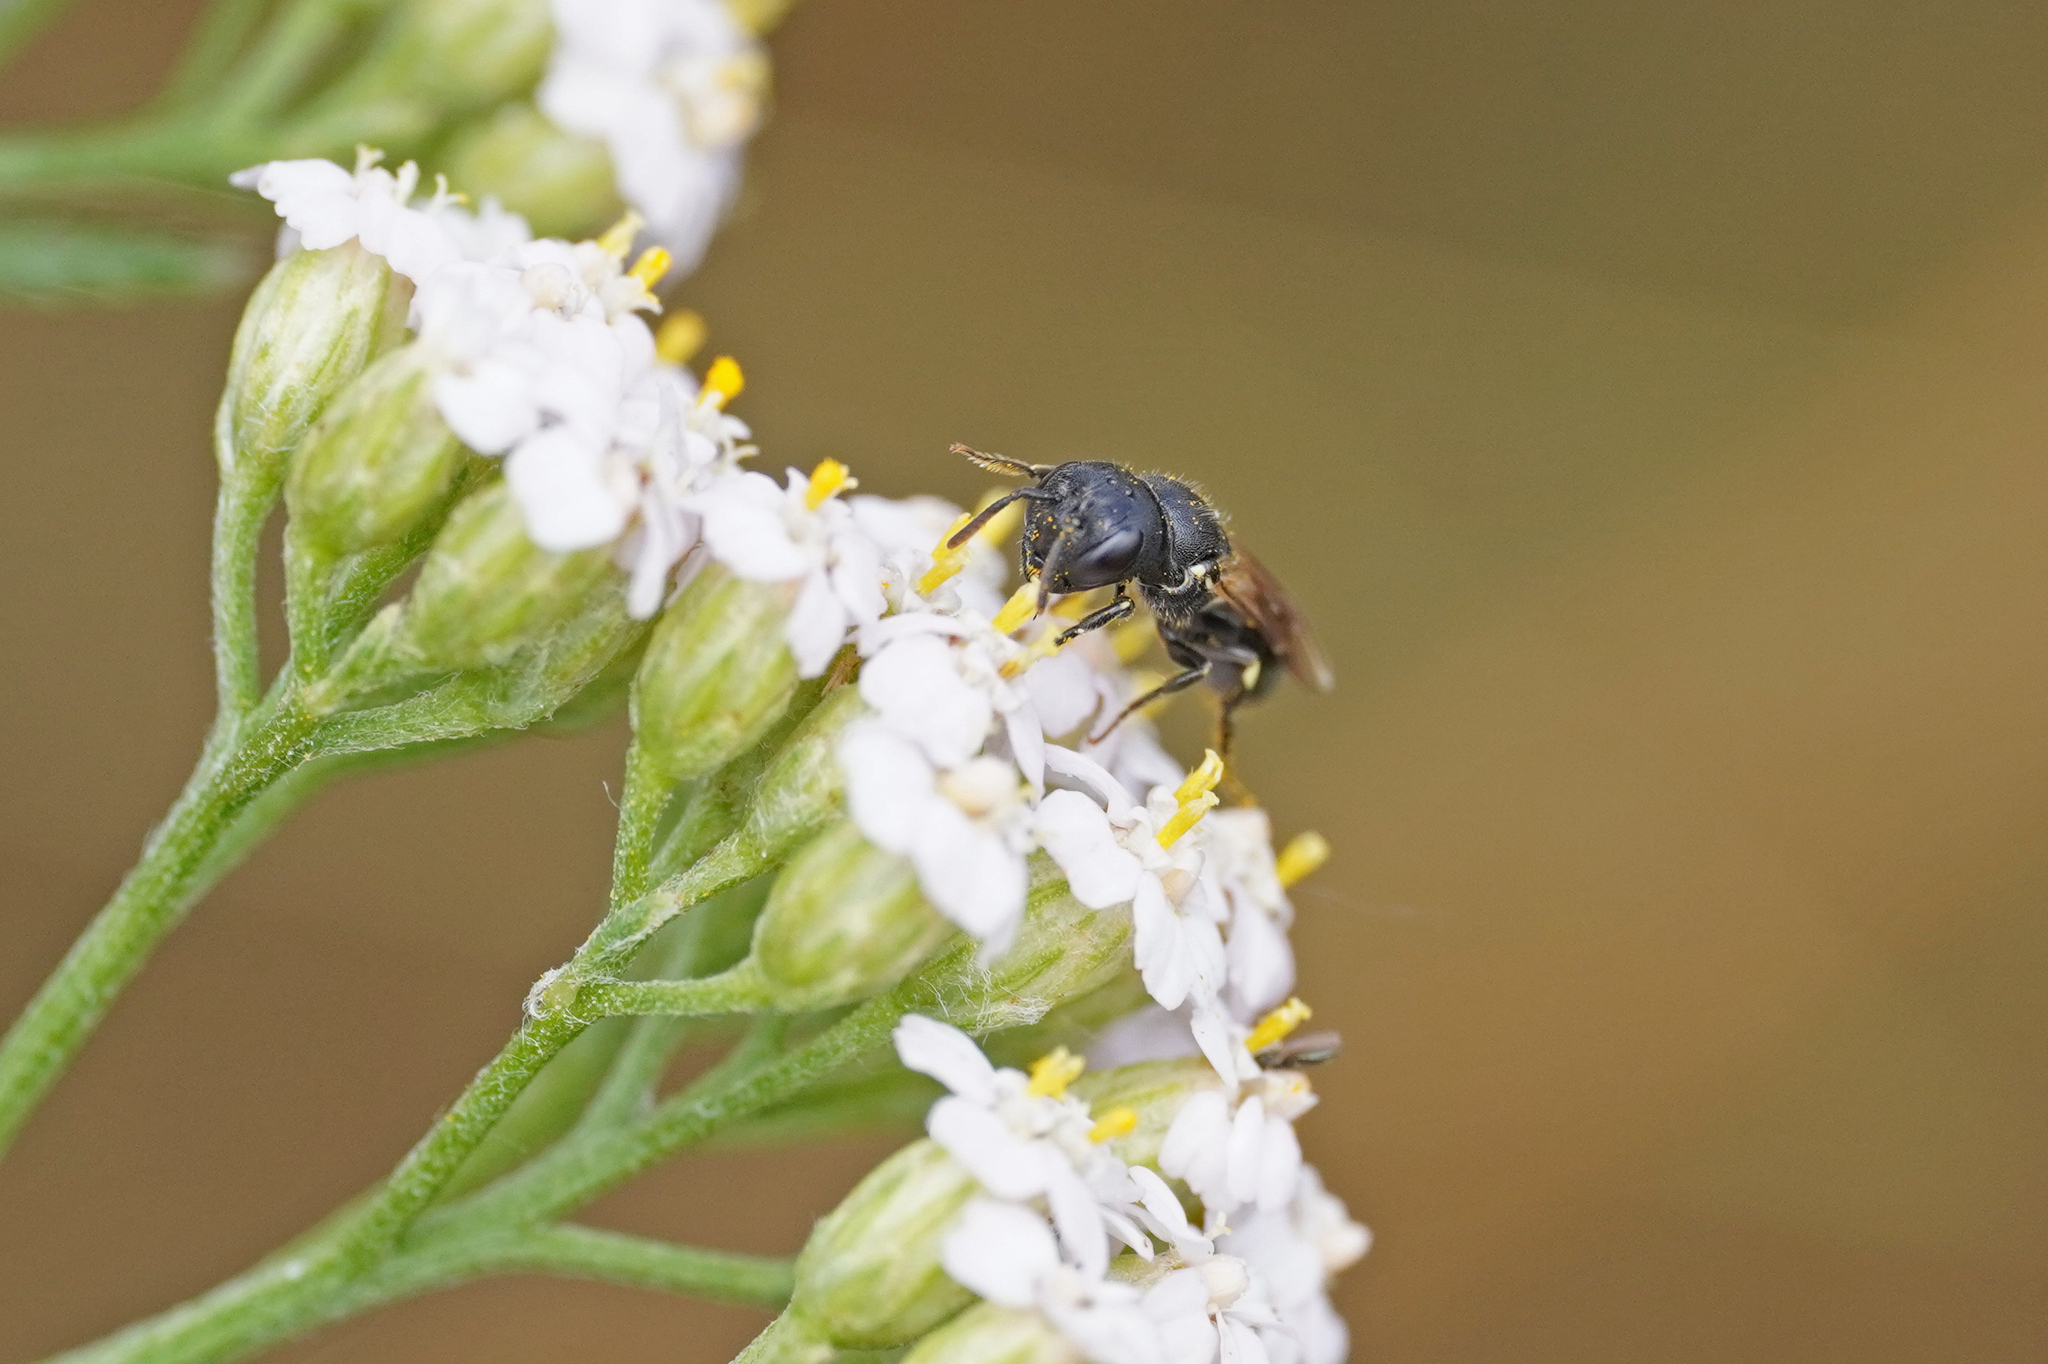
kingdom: Animalia
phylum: Arthropoda
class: Insecta
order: Hymenoptera
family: Colletidae
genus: Hylaeus
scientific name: Hylaeus cornutus
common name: Spined hylaeus
